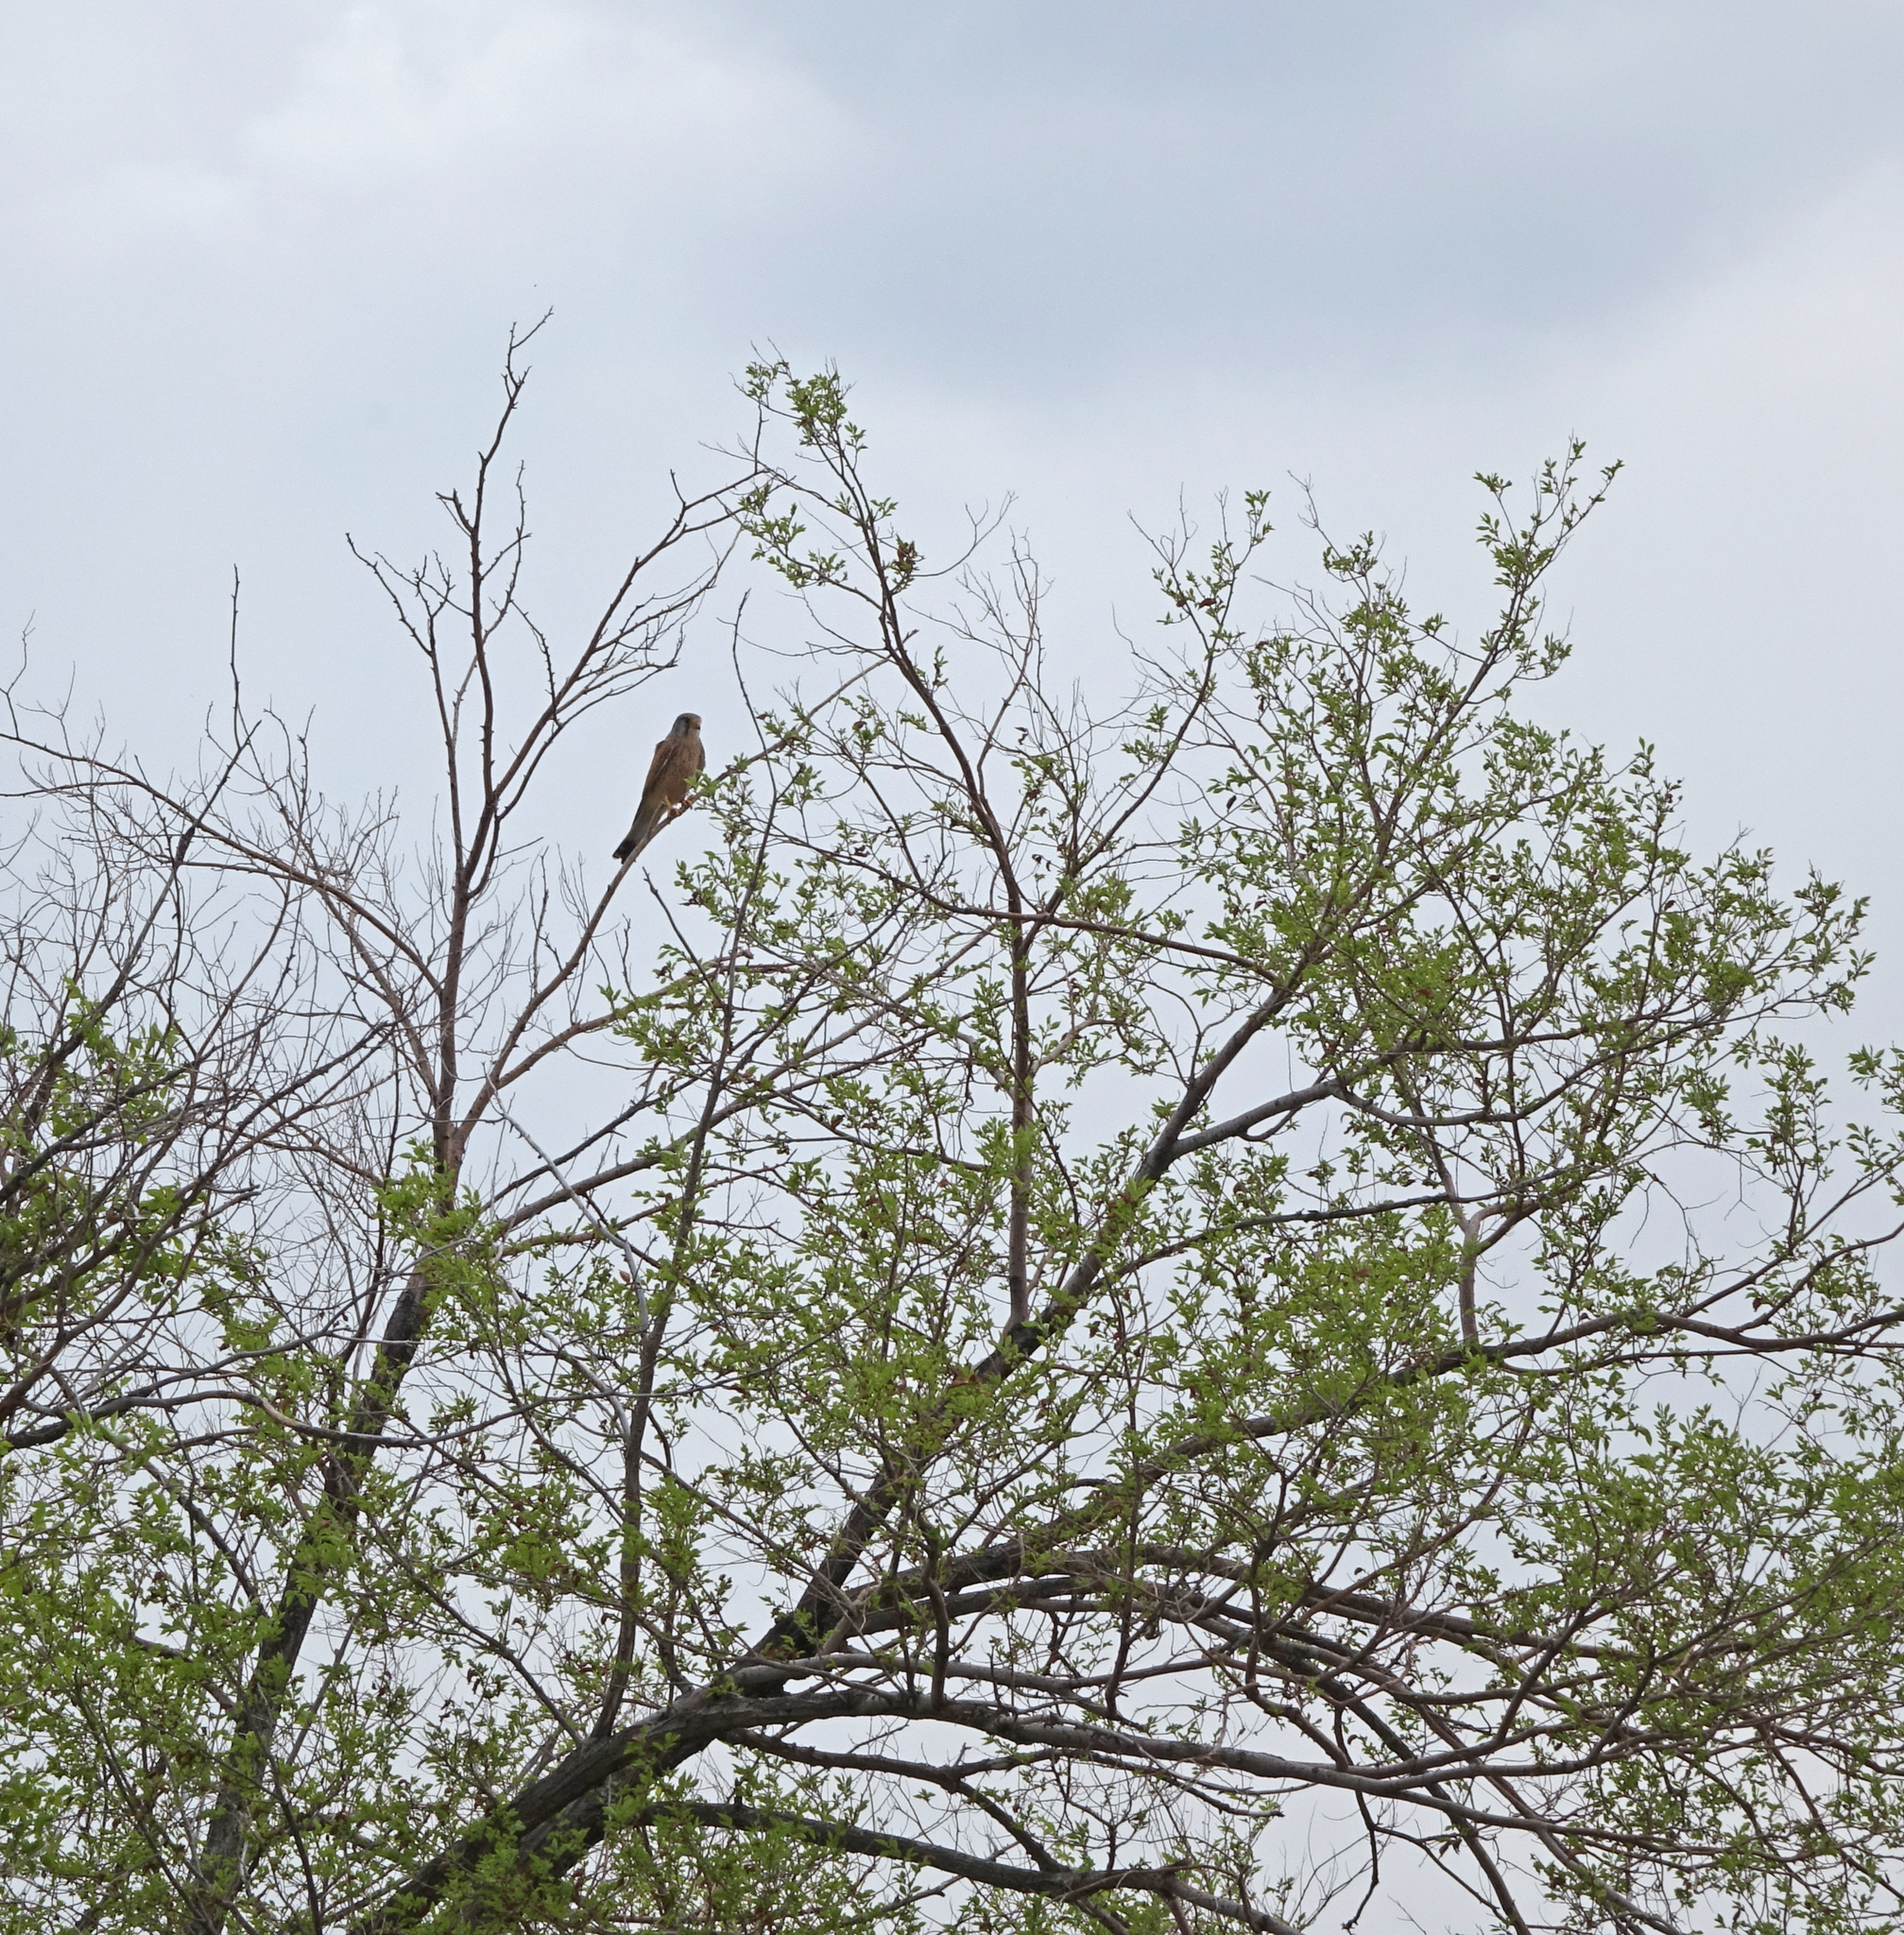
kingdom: Animalia
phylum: Chordata
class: Aves
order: Falconiformes
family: Falconidae
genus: Falco
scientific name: Falco tinnunculus
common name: Common kestrel
